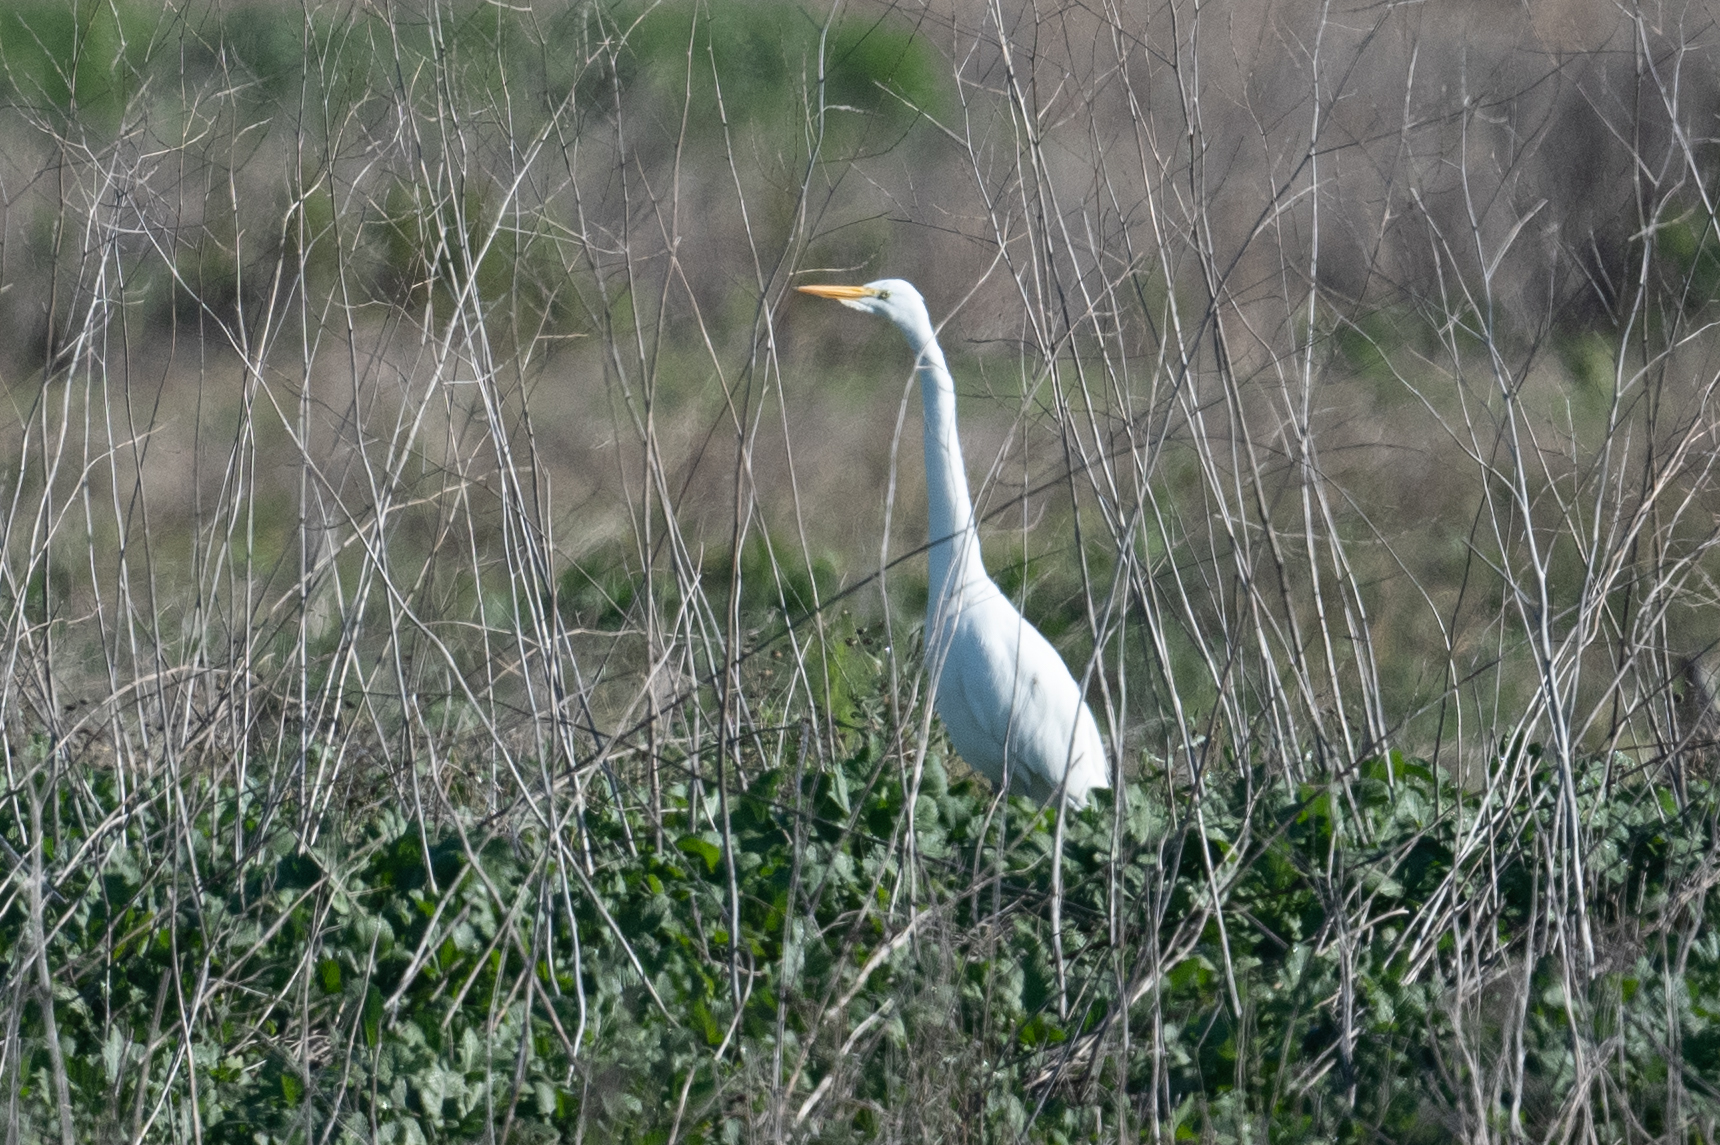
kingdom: Animalia
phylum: Chordata
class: Aves
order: Pelecaniformes
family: Ardeidae
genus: Ardea
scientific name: Ardea alba
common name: Great egret
